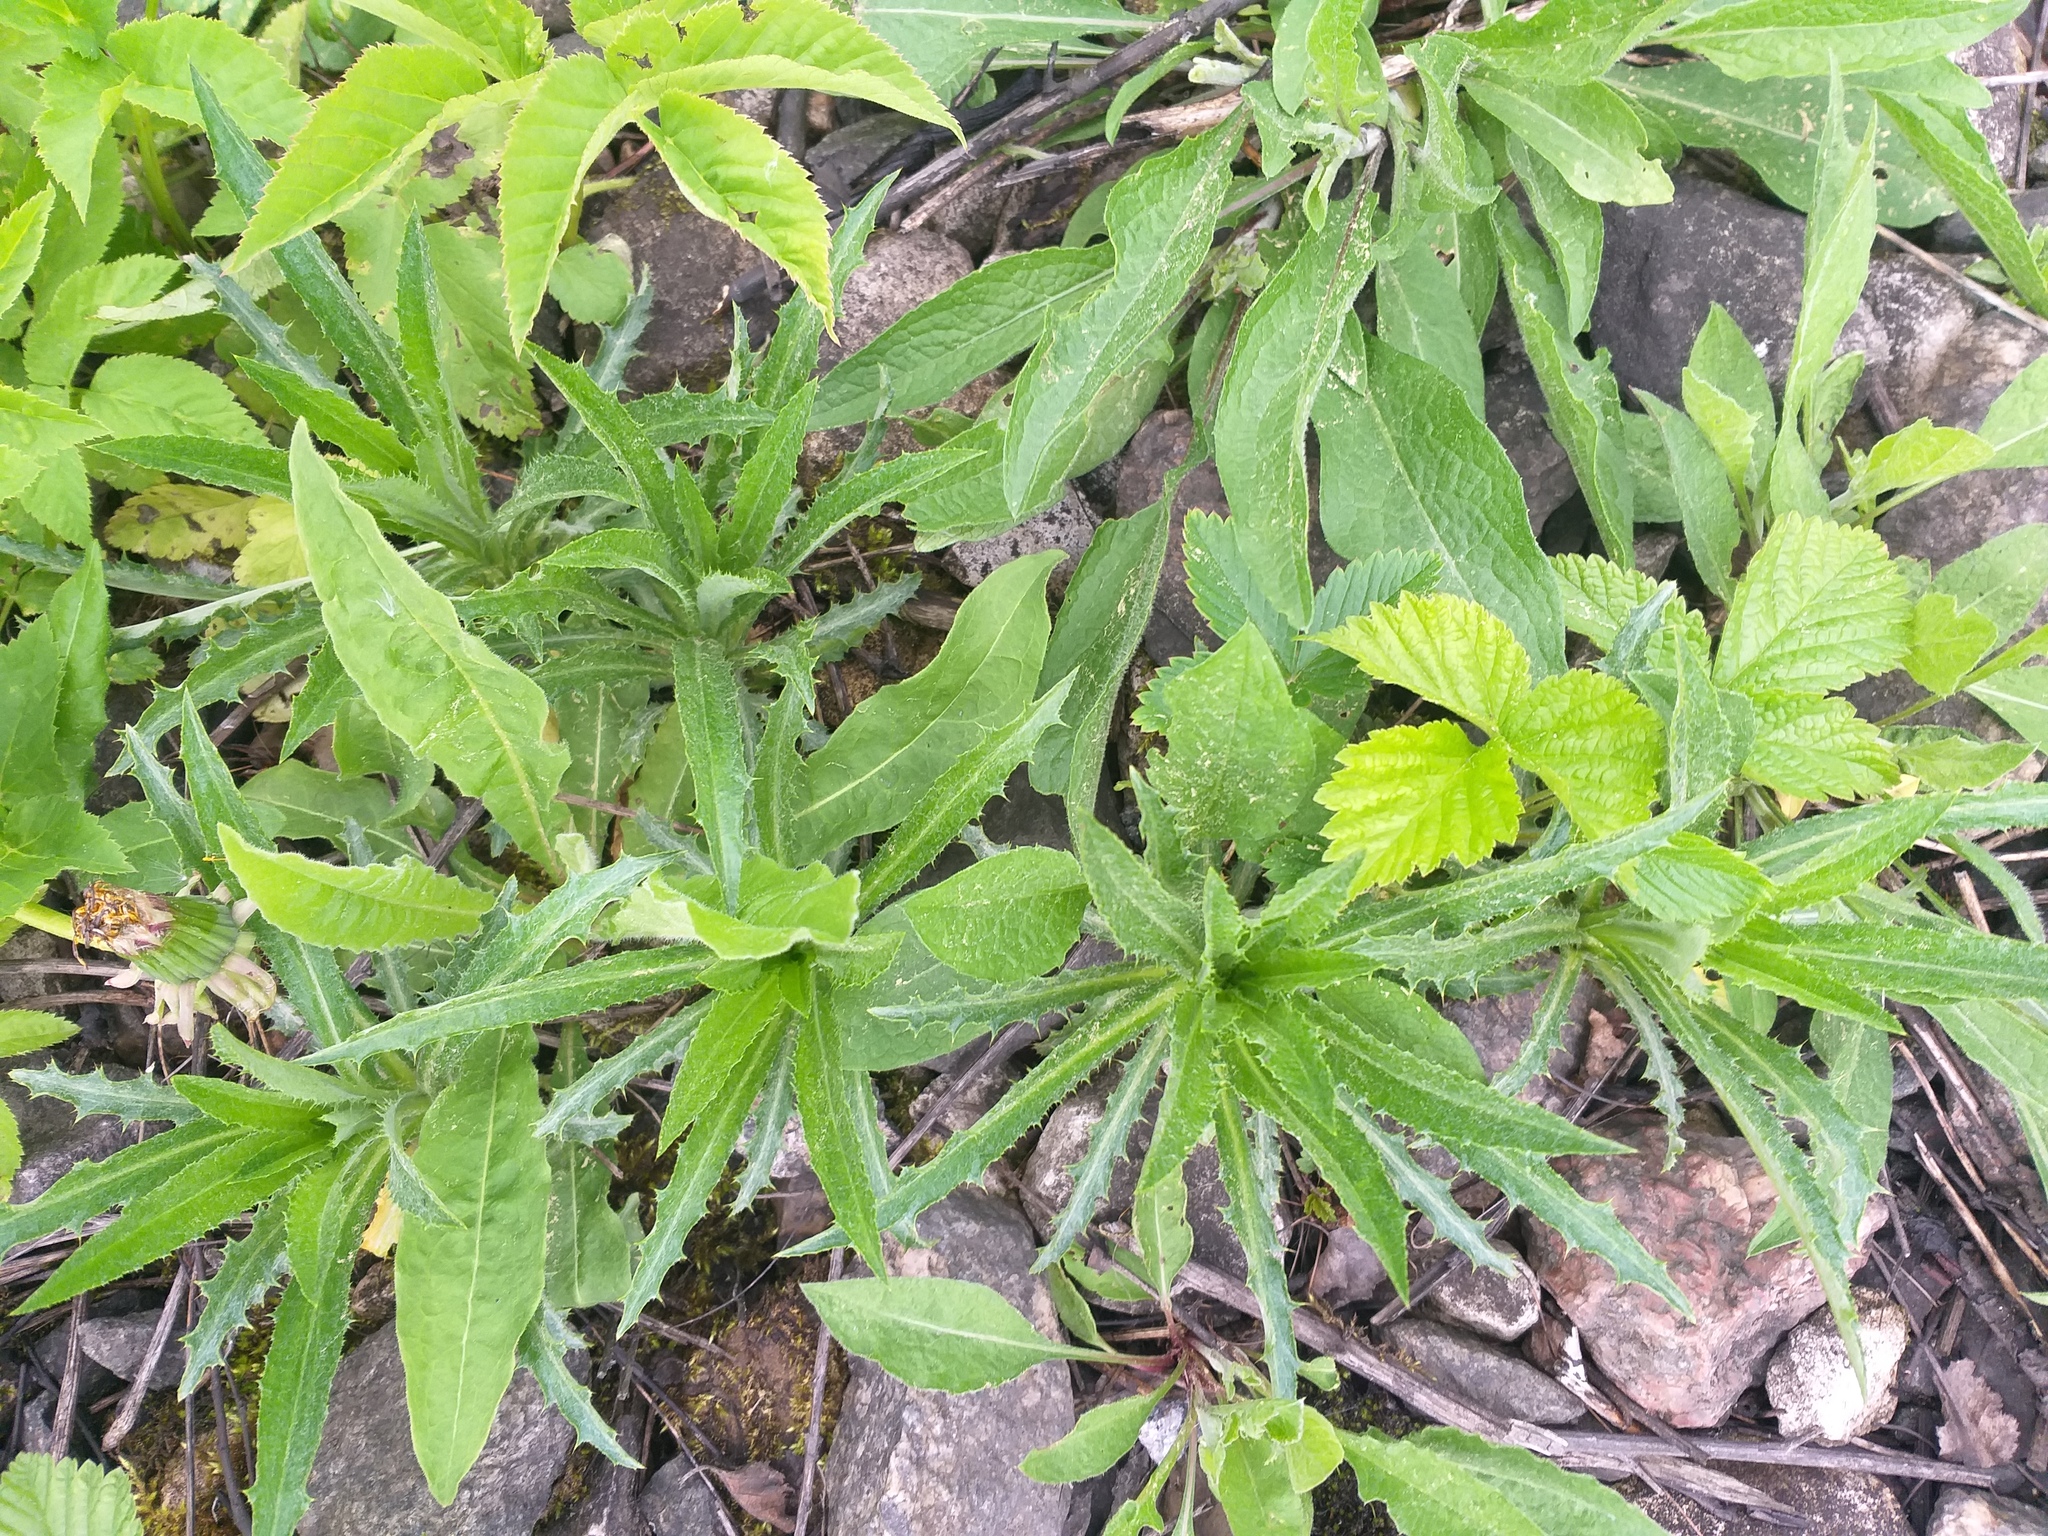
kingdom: Plantae
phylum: Tracheophyta
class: Magnoliopsida
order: Asterales
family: Asteraceae
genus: Carlina
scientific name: Carlina biebersteinii
